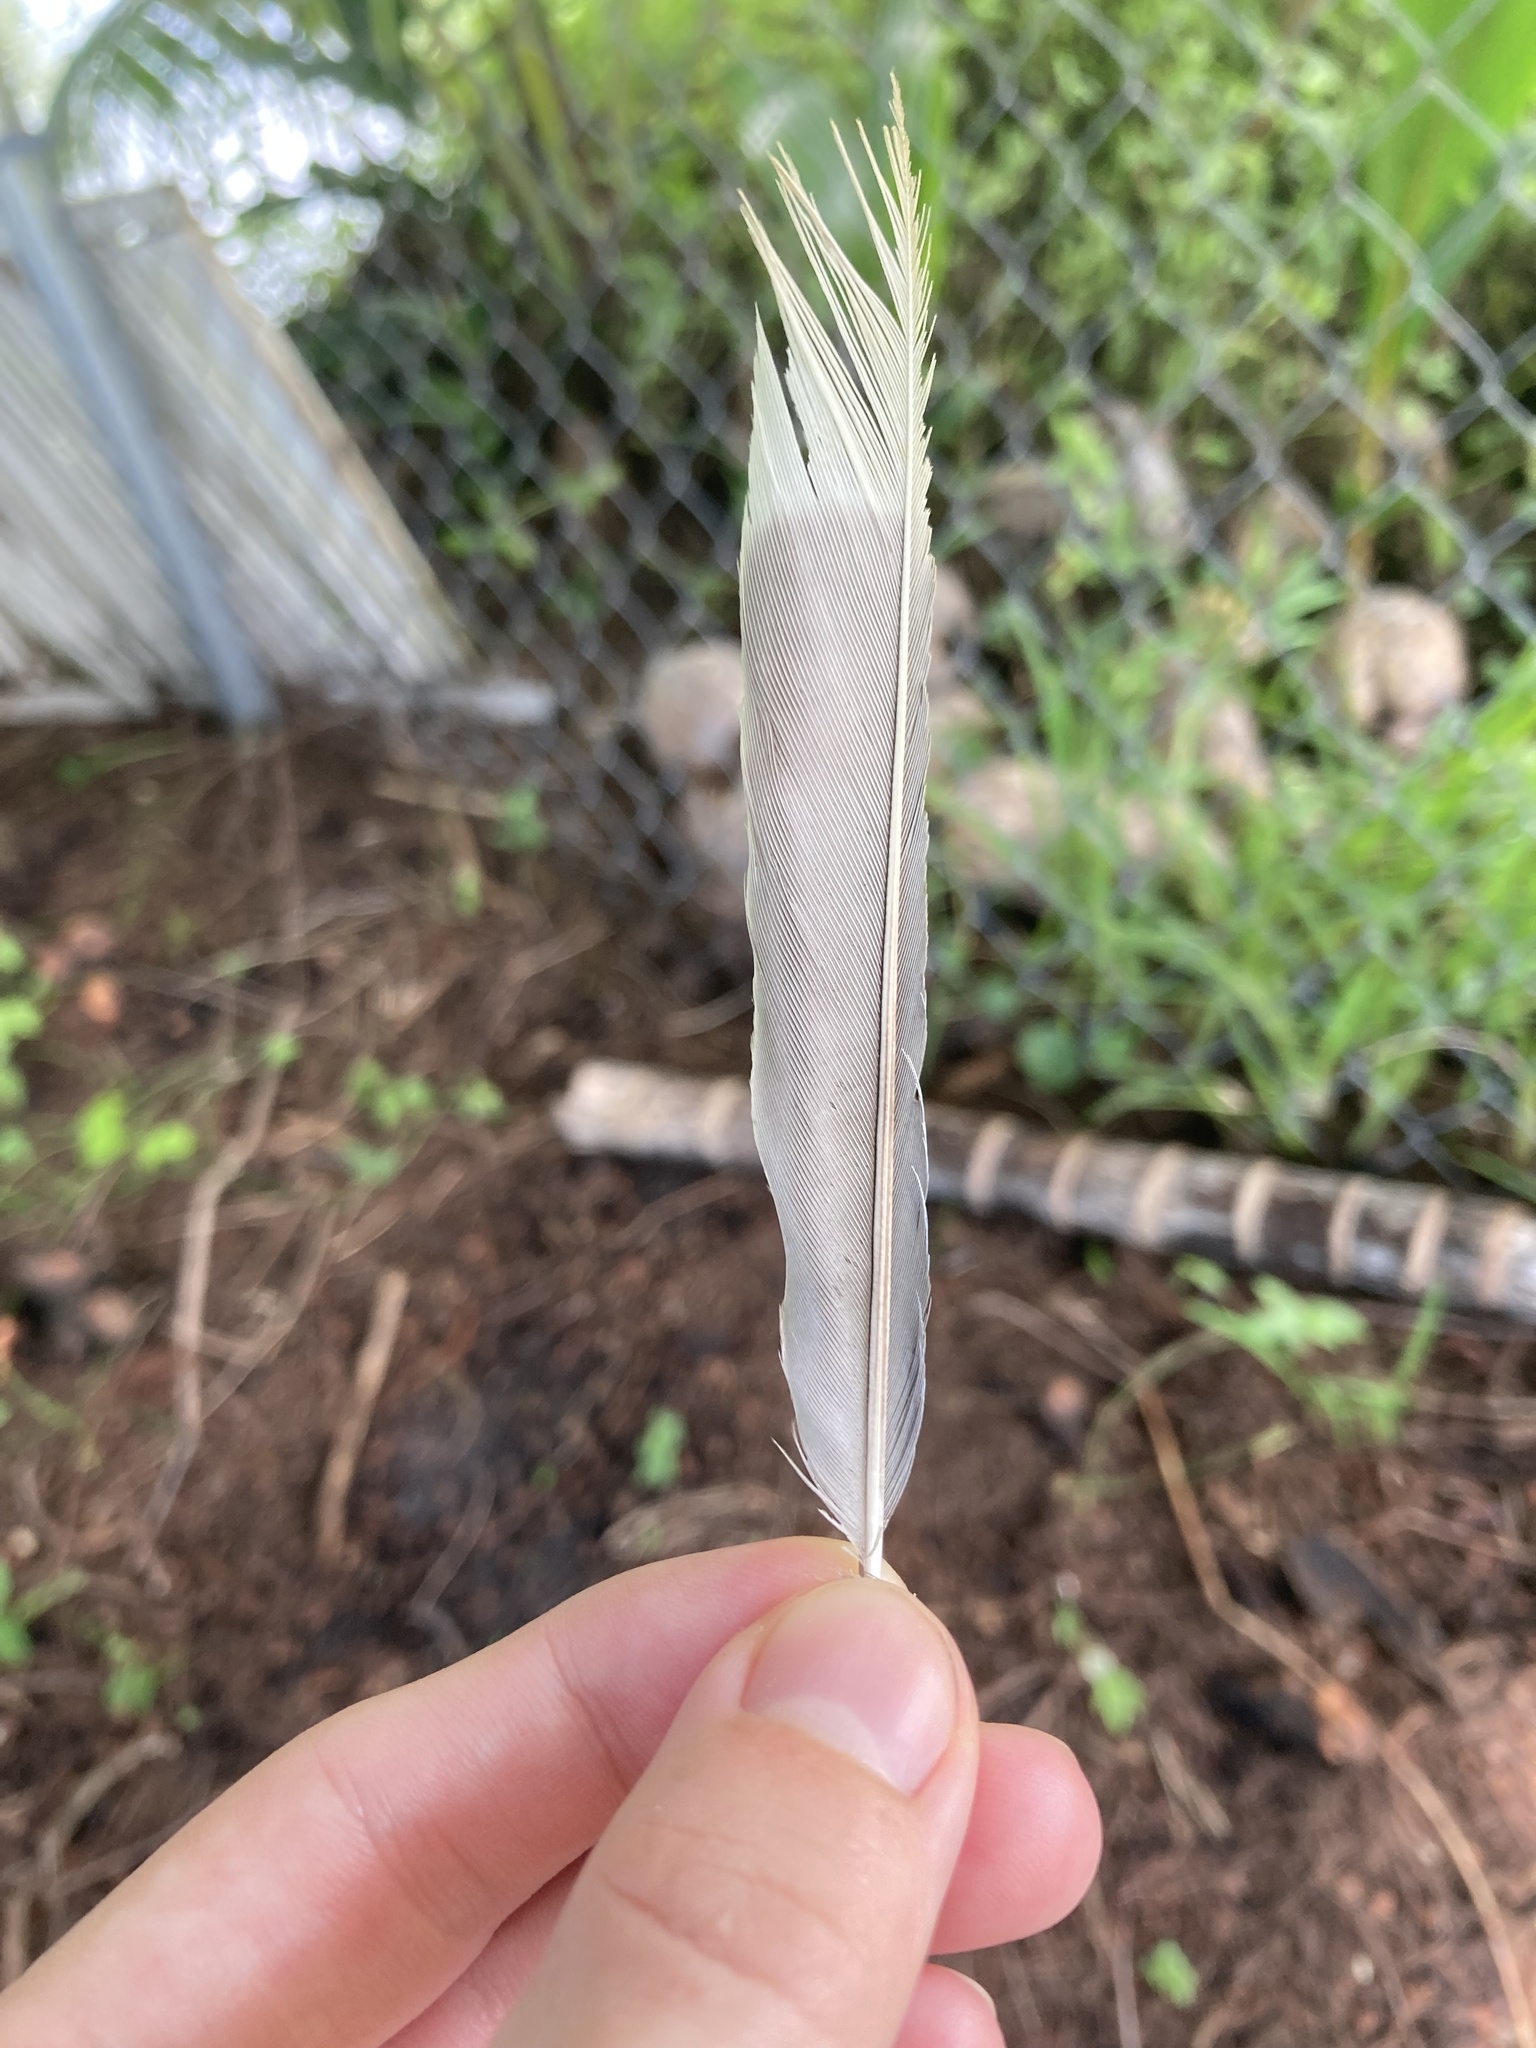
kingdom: Animalia
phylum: Chordata
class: Aves
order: Passeriformes
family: Corvidae
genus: Cyanocitta
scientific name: Cyanocitta cristata
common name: Blue jay
